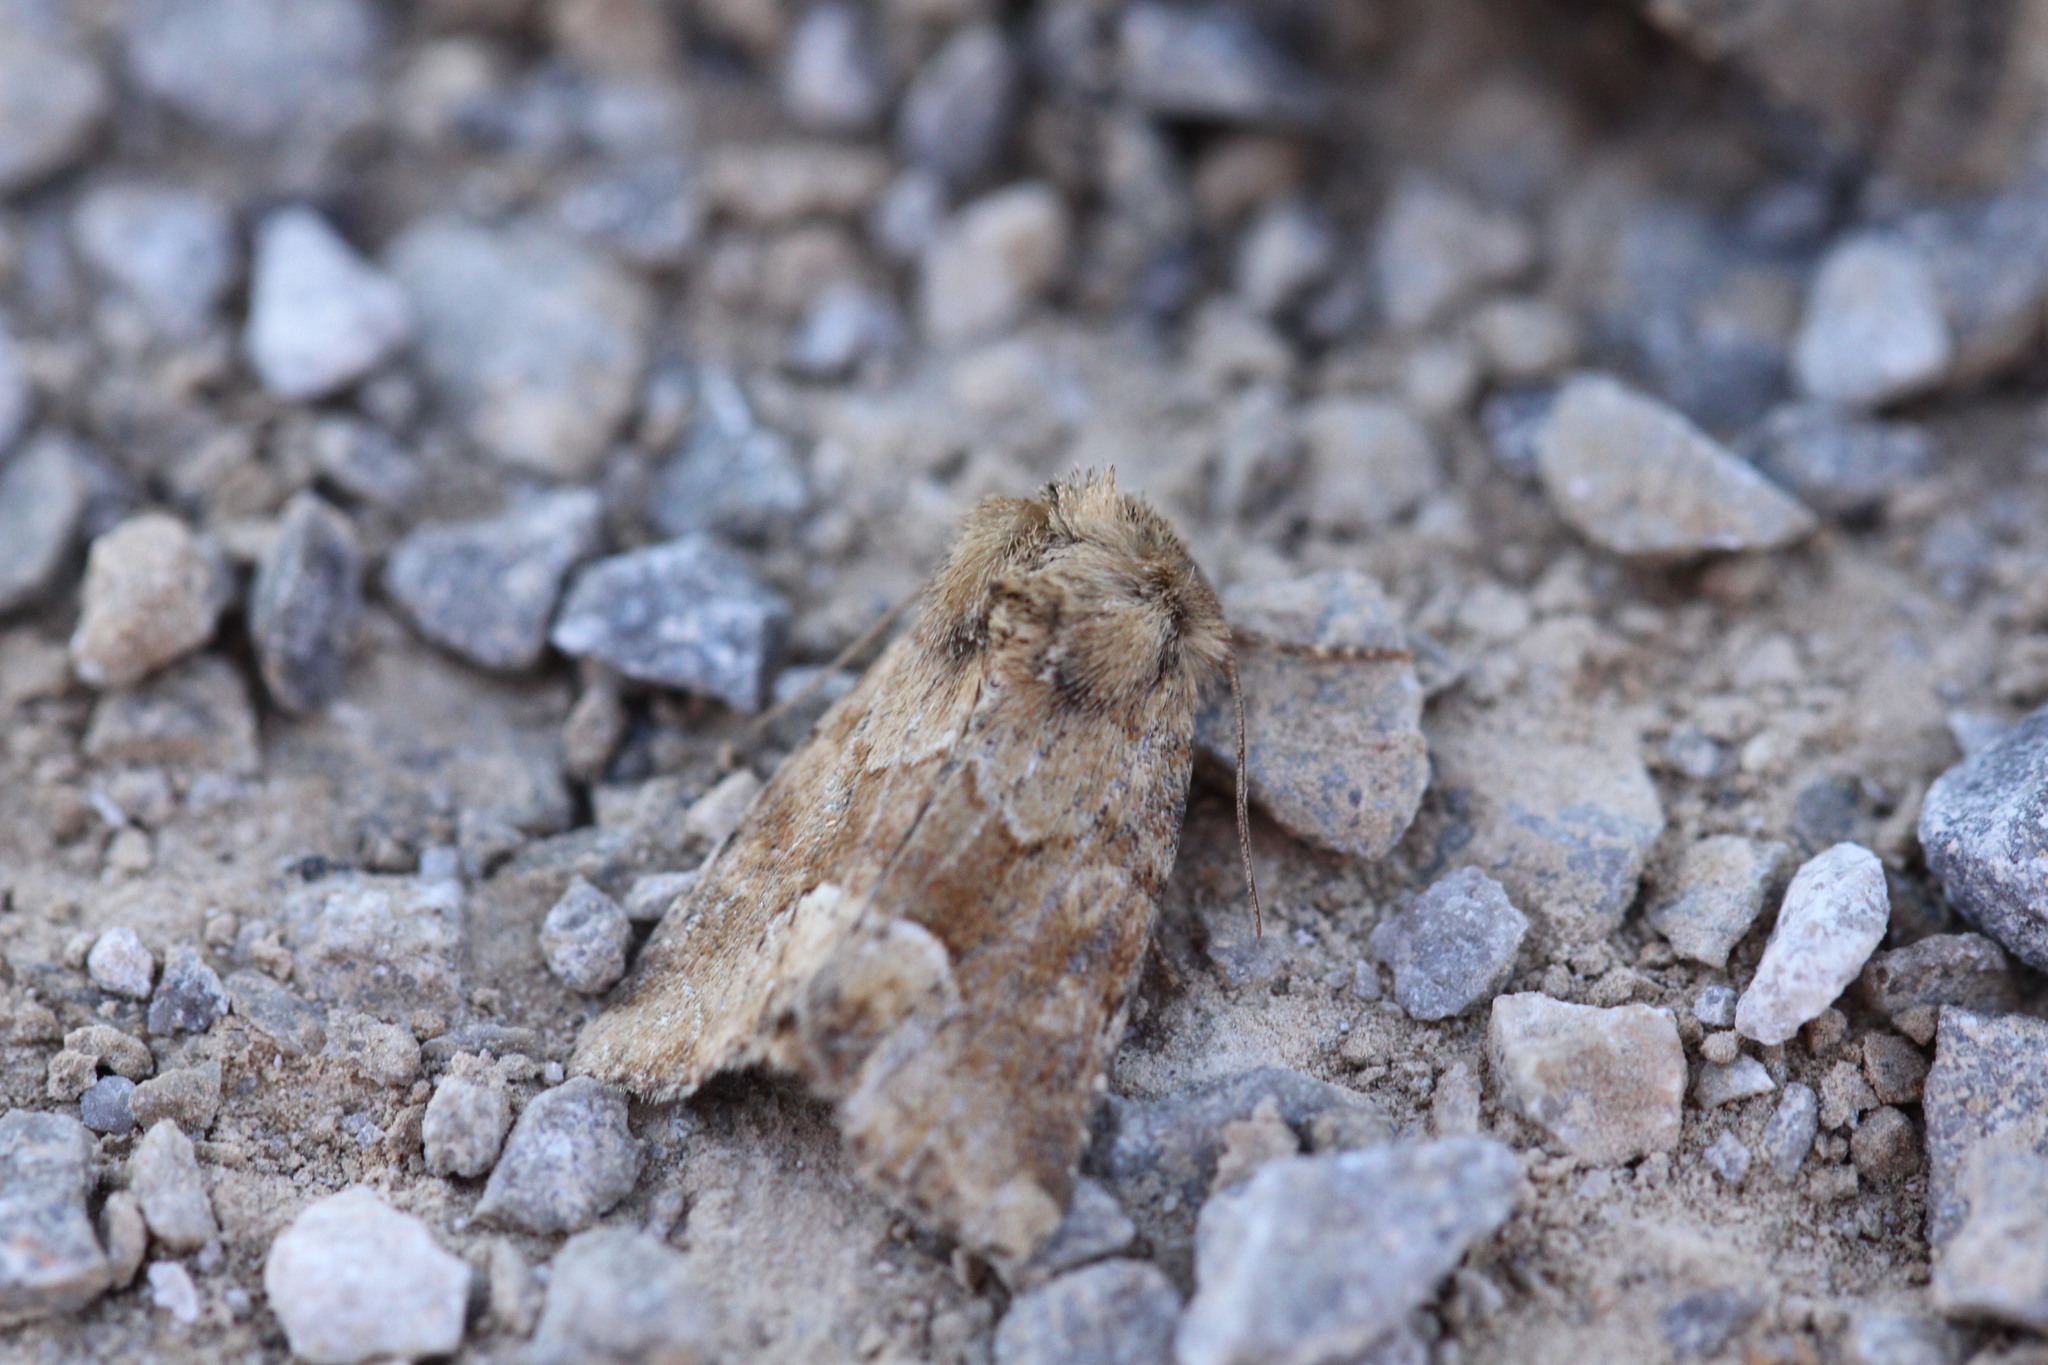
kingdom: Animalia
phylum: Arthropoda
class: Insecta
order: Lepidoptera
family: Noctuidae
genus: Oligia
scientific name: Oligia fasciuncula
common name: Middle-barred minor
